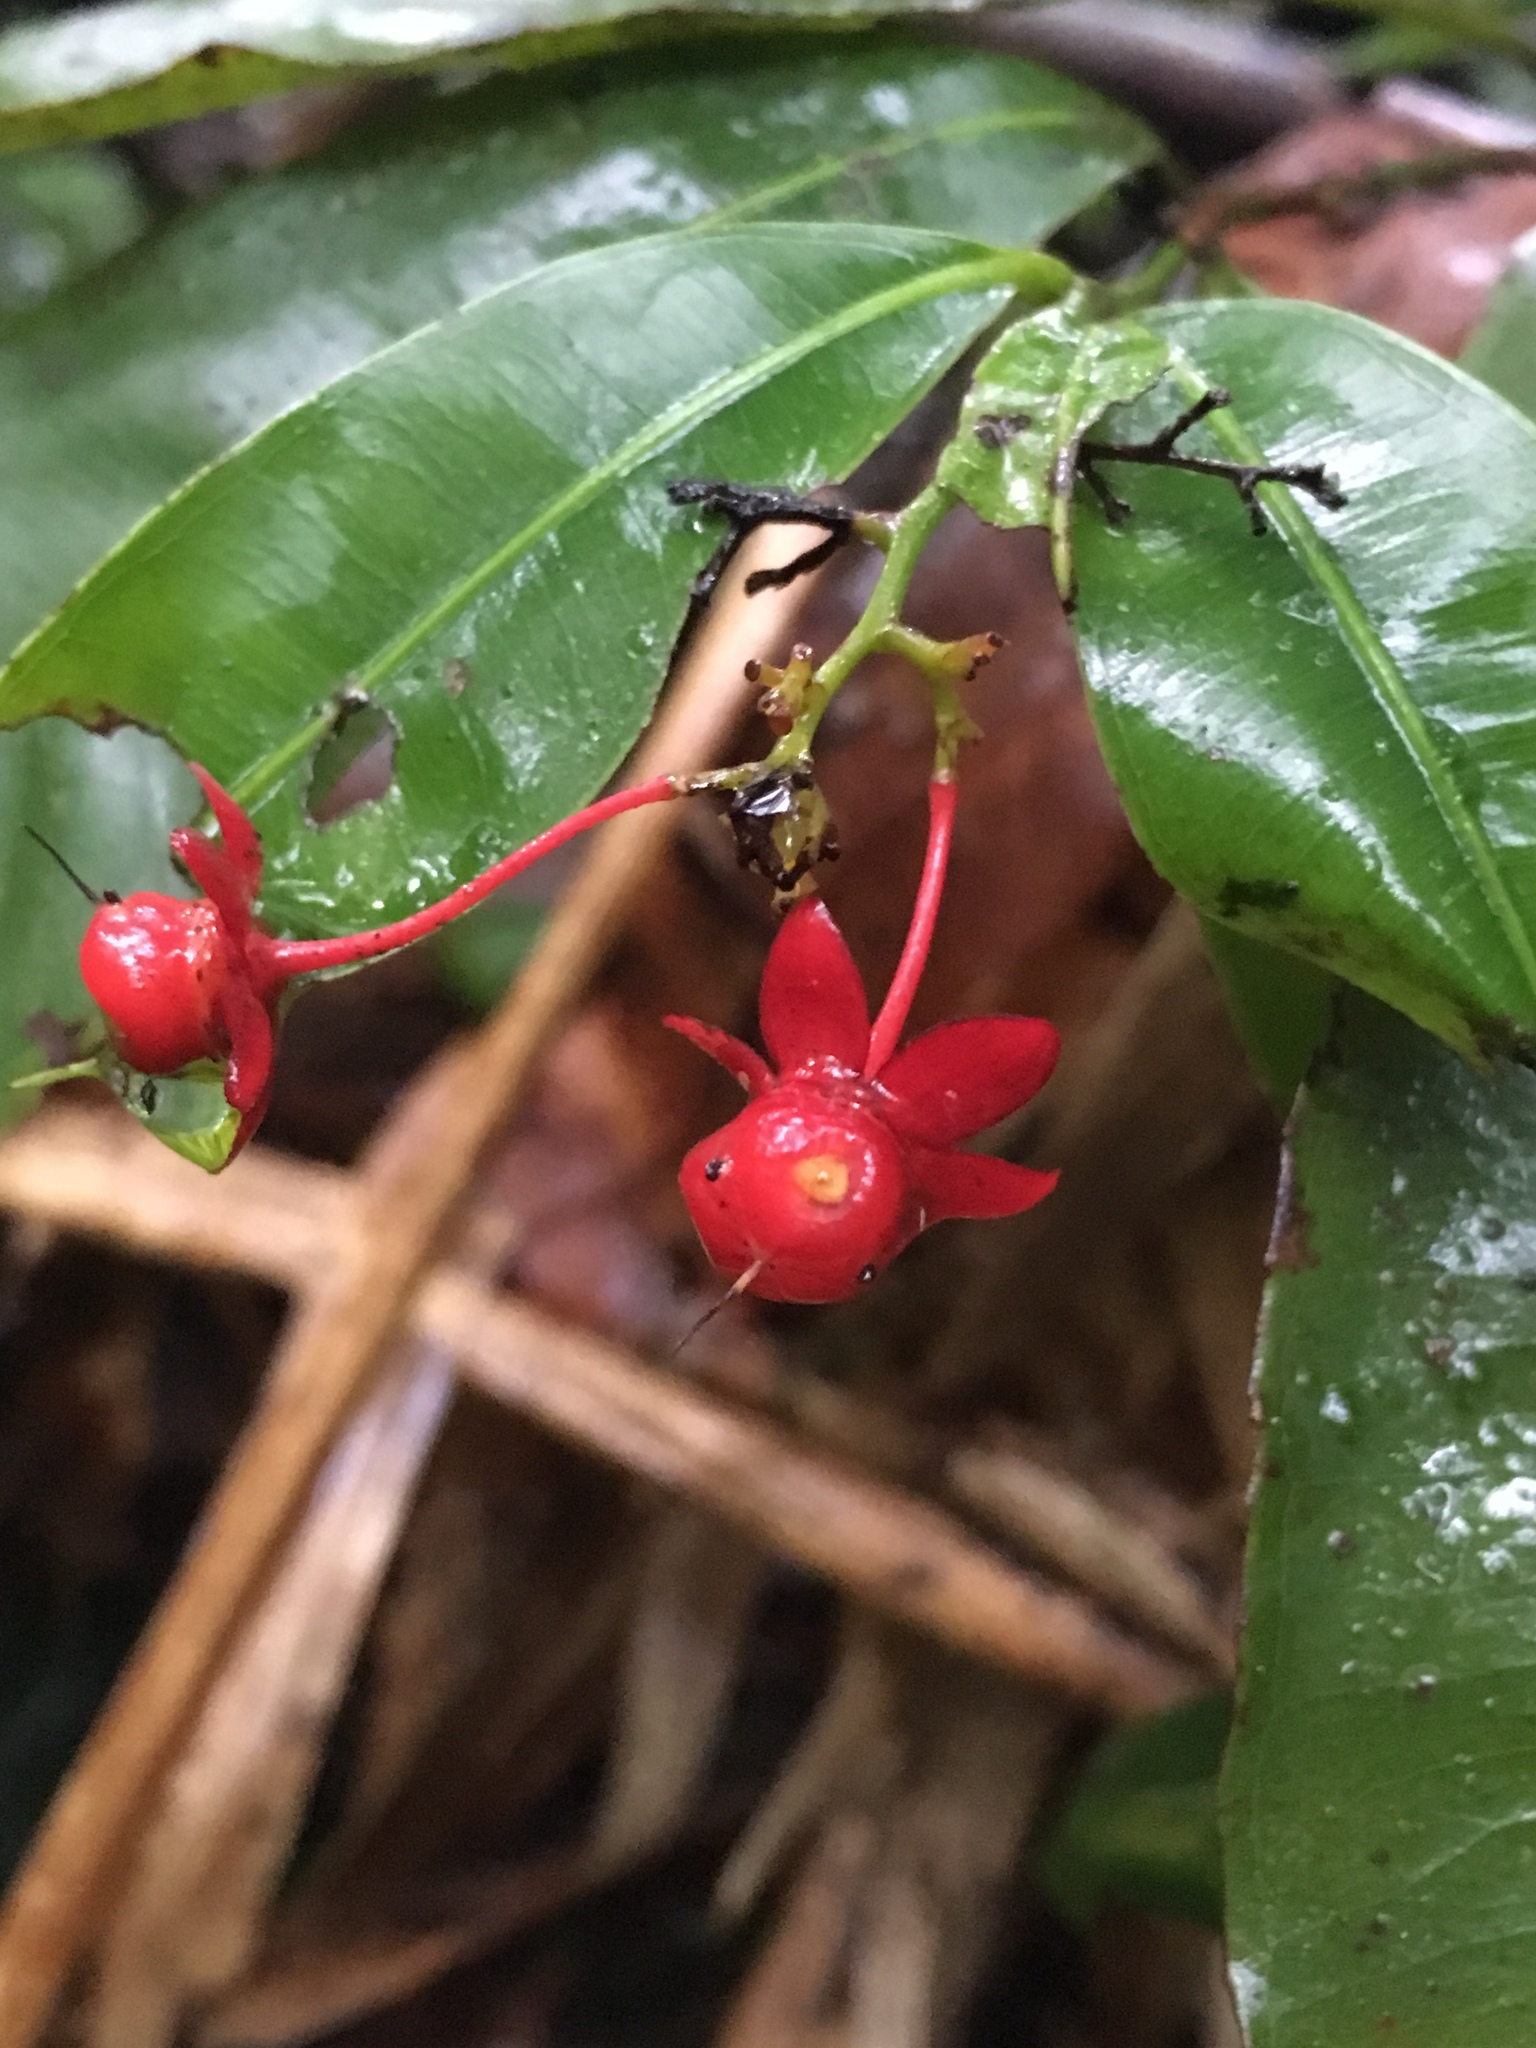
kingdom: Plantae
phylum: Tracheophyta
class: Magnoliopsida
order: Malpighiales
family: Ochnaceae
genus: Ochna
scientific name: Ochna serrulata
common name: Mickey mouse plant
